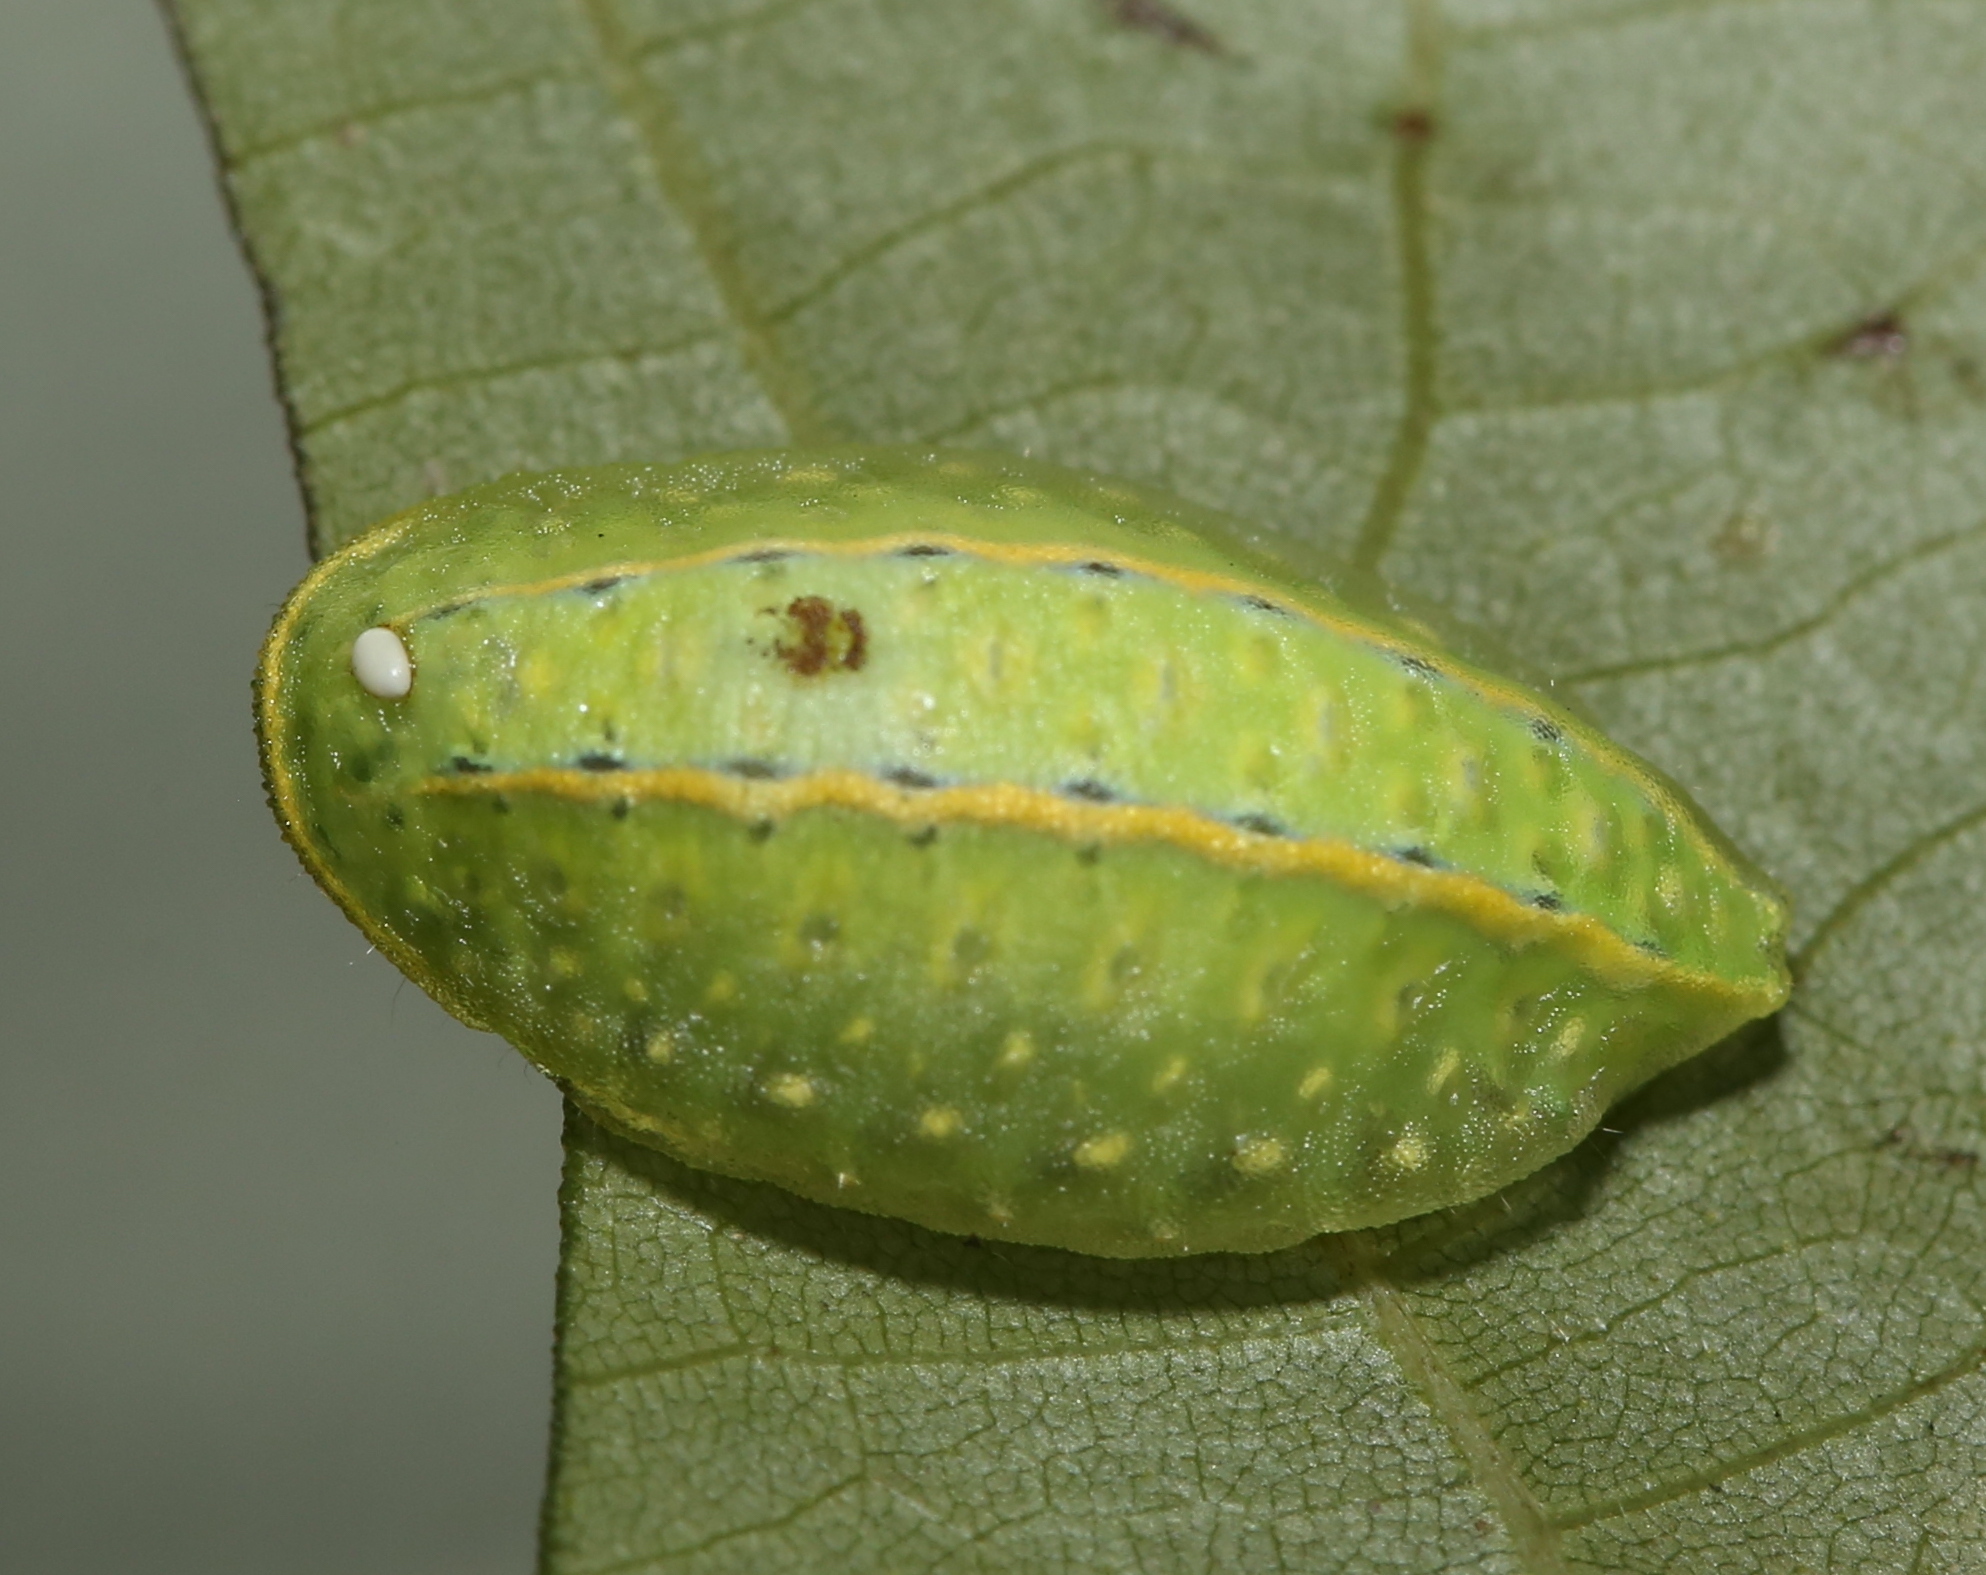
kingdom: Animalia
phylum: Arthropoda
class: Insecta
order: Lepidoptera
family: Limacodidae
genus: Apoda
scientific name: Apoda y-inversa
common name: Yellow-collared slug moth
